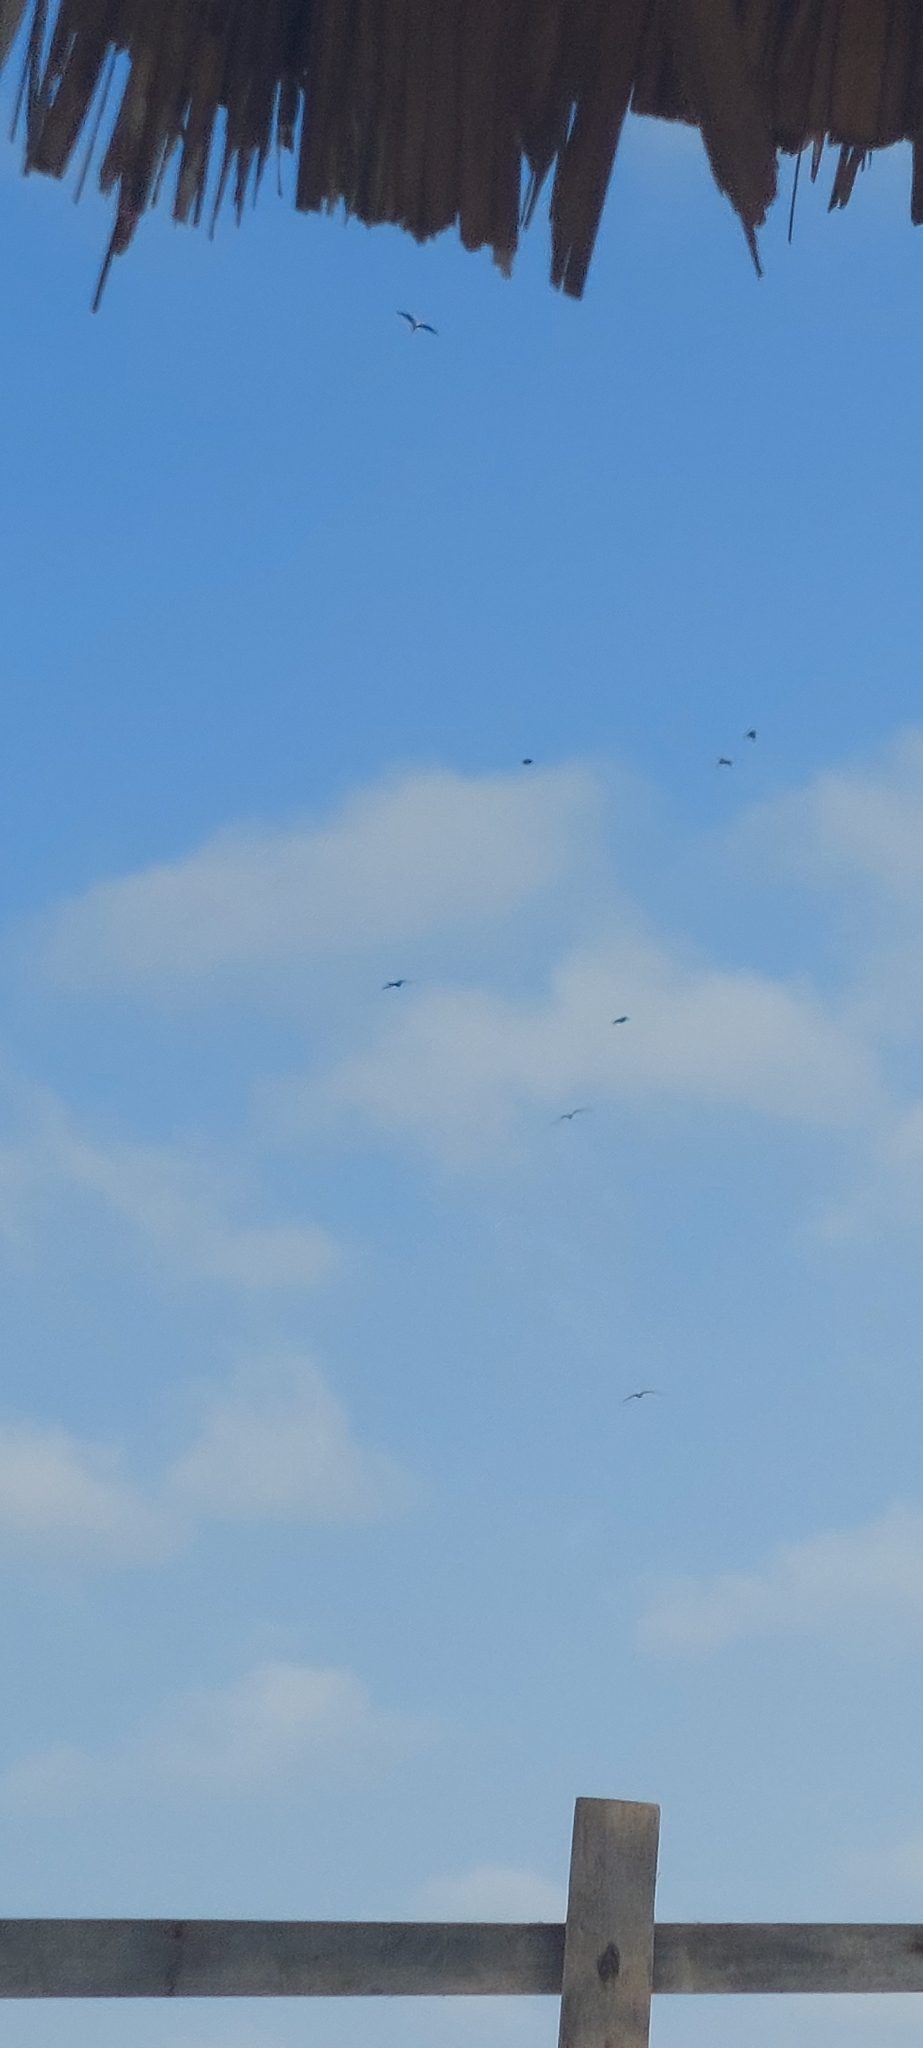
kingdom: Animalia
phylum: Chordata
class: Aves
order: Suliformes
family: Fregatidae
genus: Fregata
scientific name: Fregata magnificens
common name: Magnificent frigatebird
